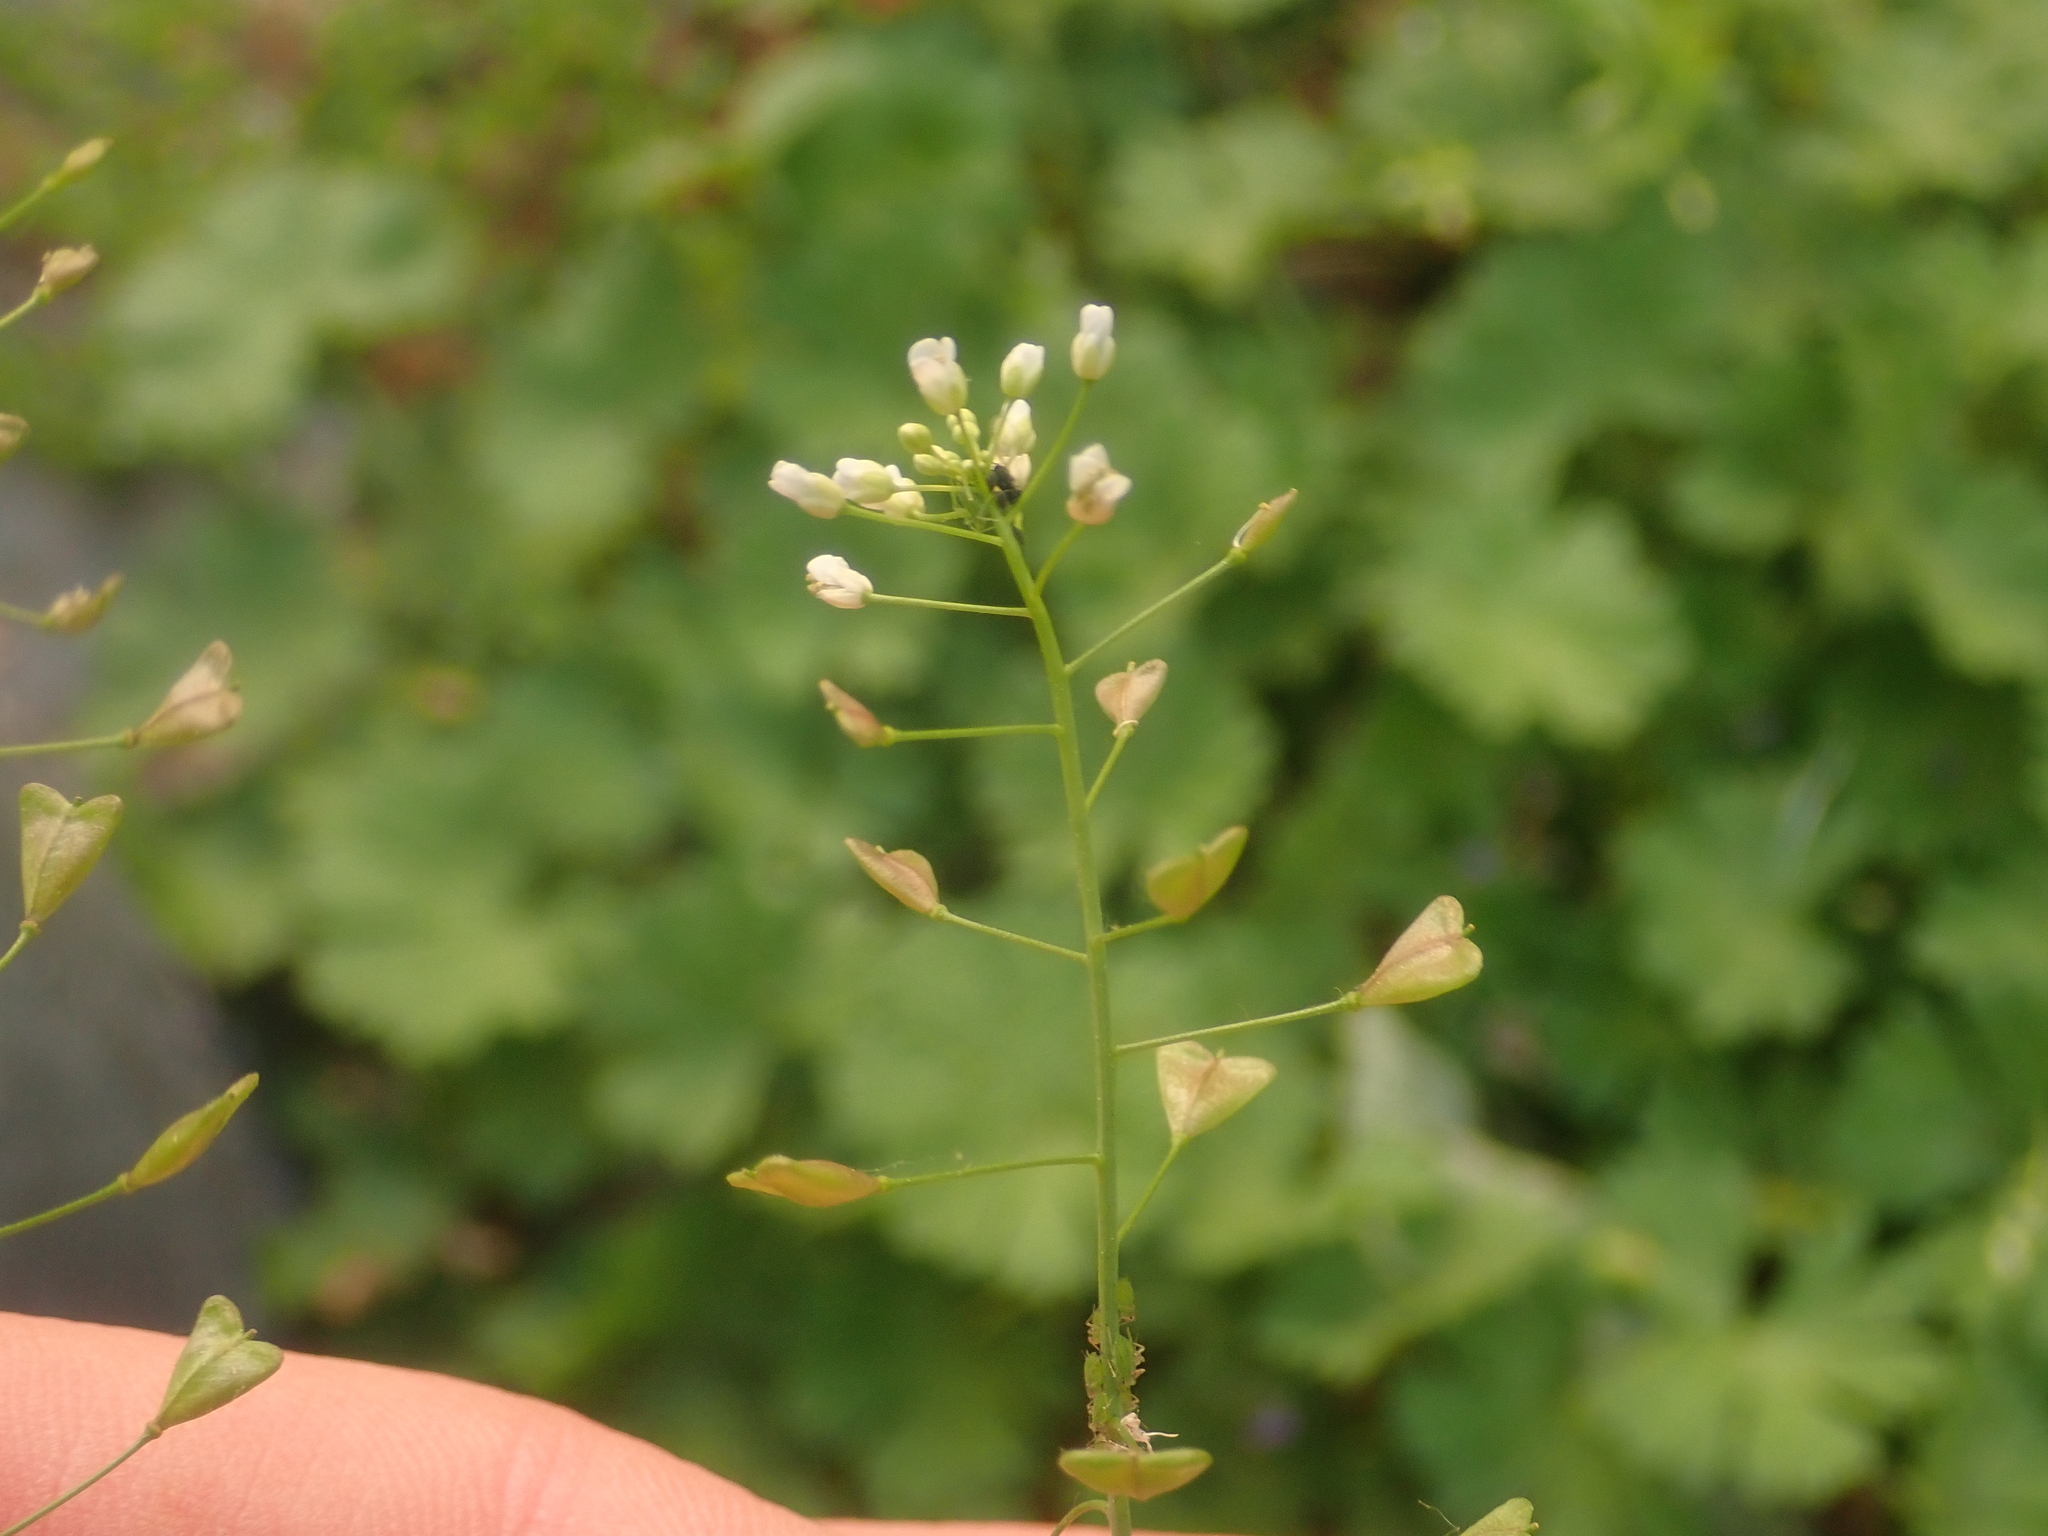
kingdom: Plantae
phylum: Tracheophyta
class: Magnoliopsida
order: Brassicales
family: Brassicaceae
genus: Capsella
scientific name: Capsella bursa-pastoris
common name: Shepherd's purse
